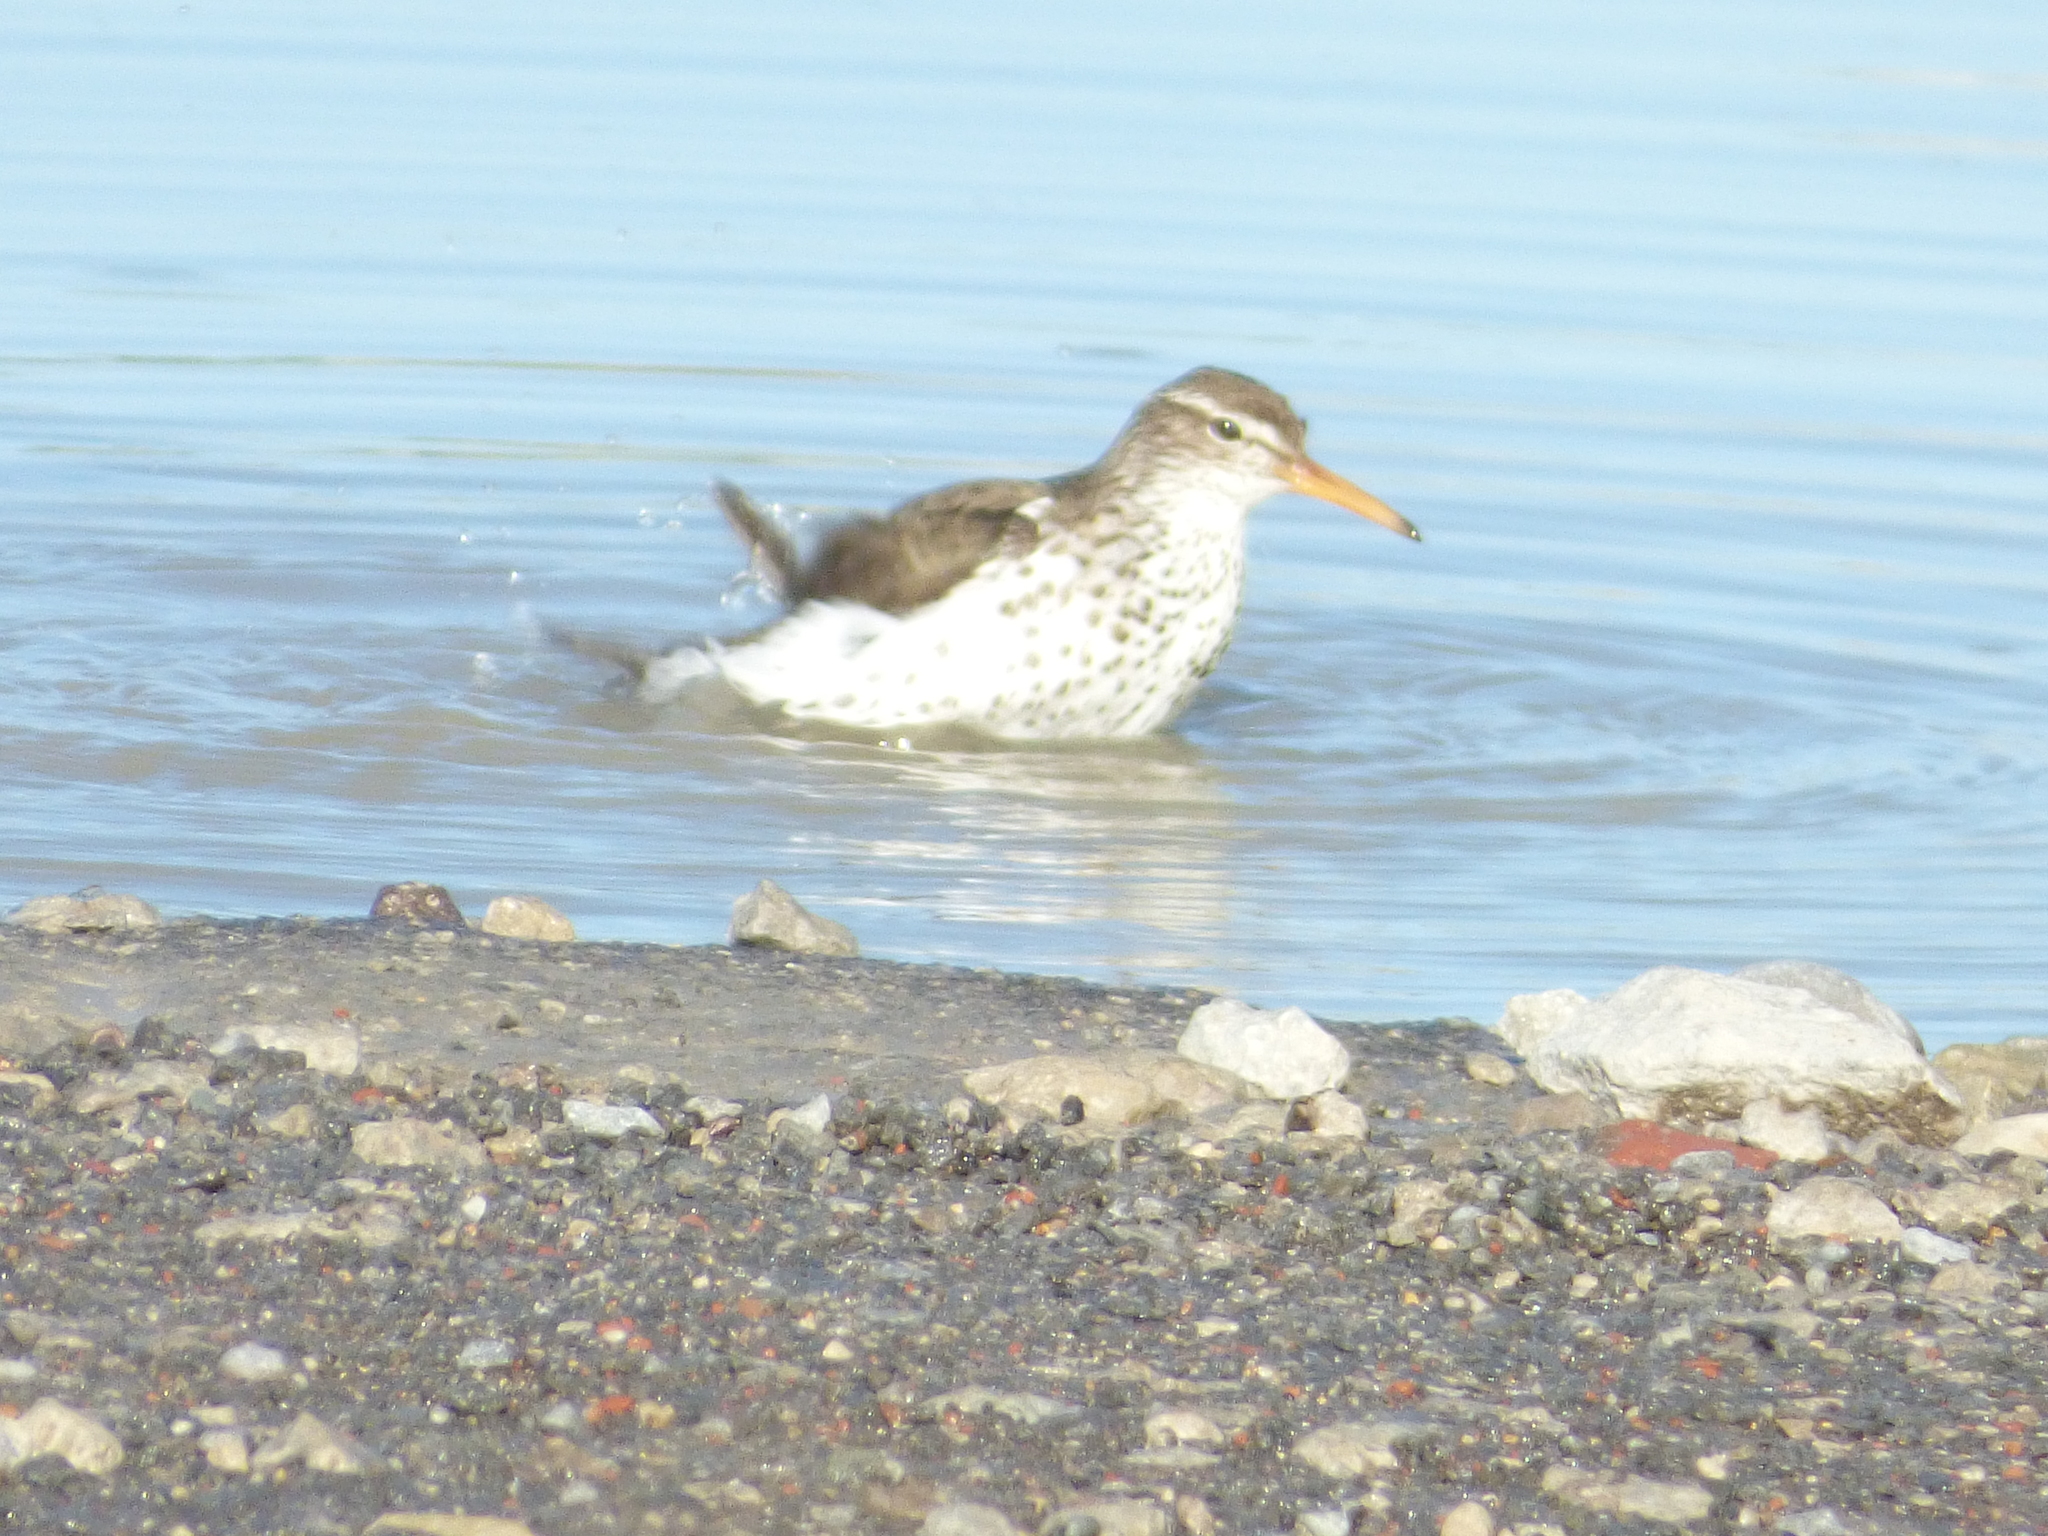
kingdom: Animalia
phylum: Chordata
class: Aves
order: Charadriiformes
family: Scolopacidae
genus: Actitis
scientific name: Actitis macularius
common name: Spotted sandpiper
